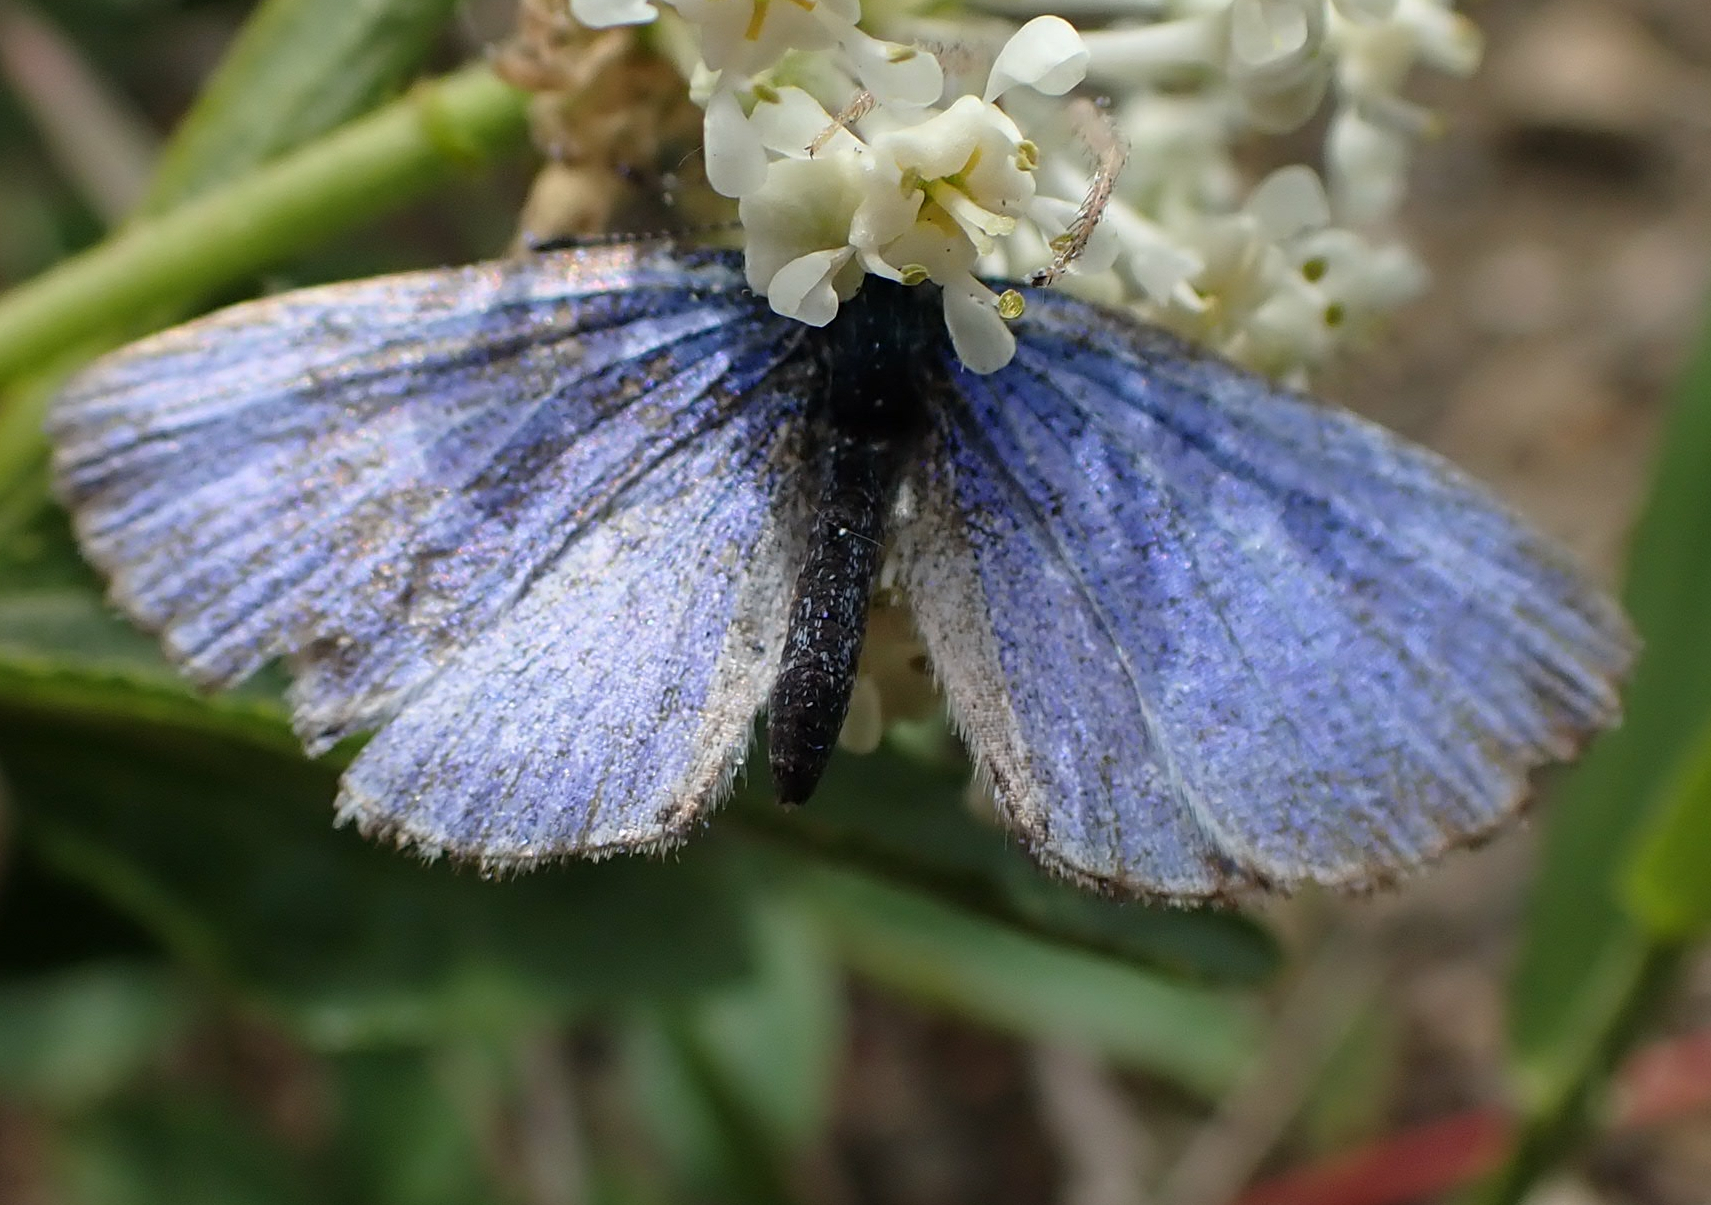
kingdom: Animalia
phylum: Arthropoda
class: Insecta
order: Lepidoptera
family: Lycaenidae
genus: Celastrina
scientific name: Celastrina lucia
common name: Lucia azure
